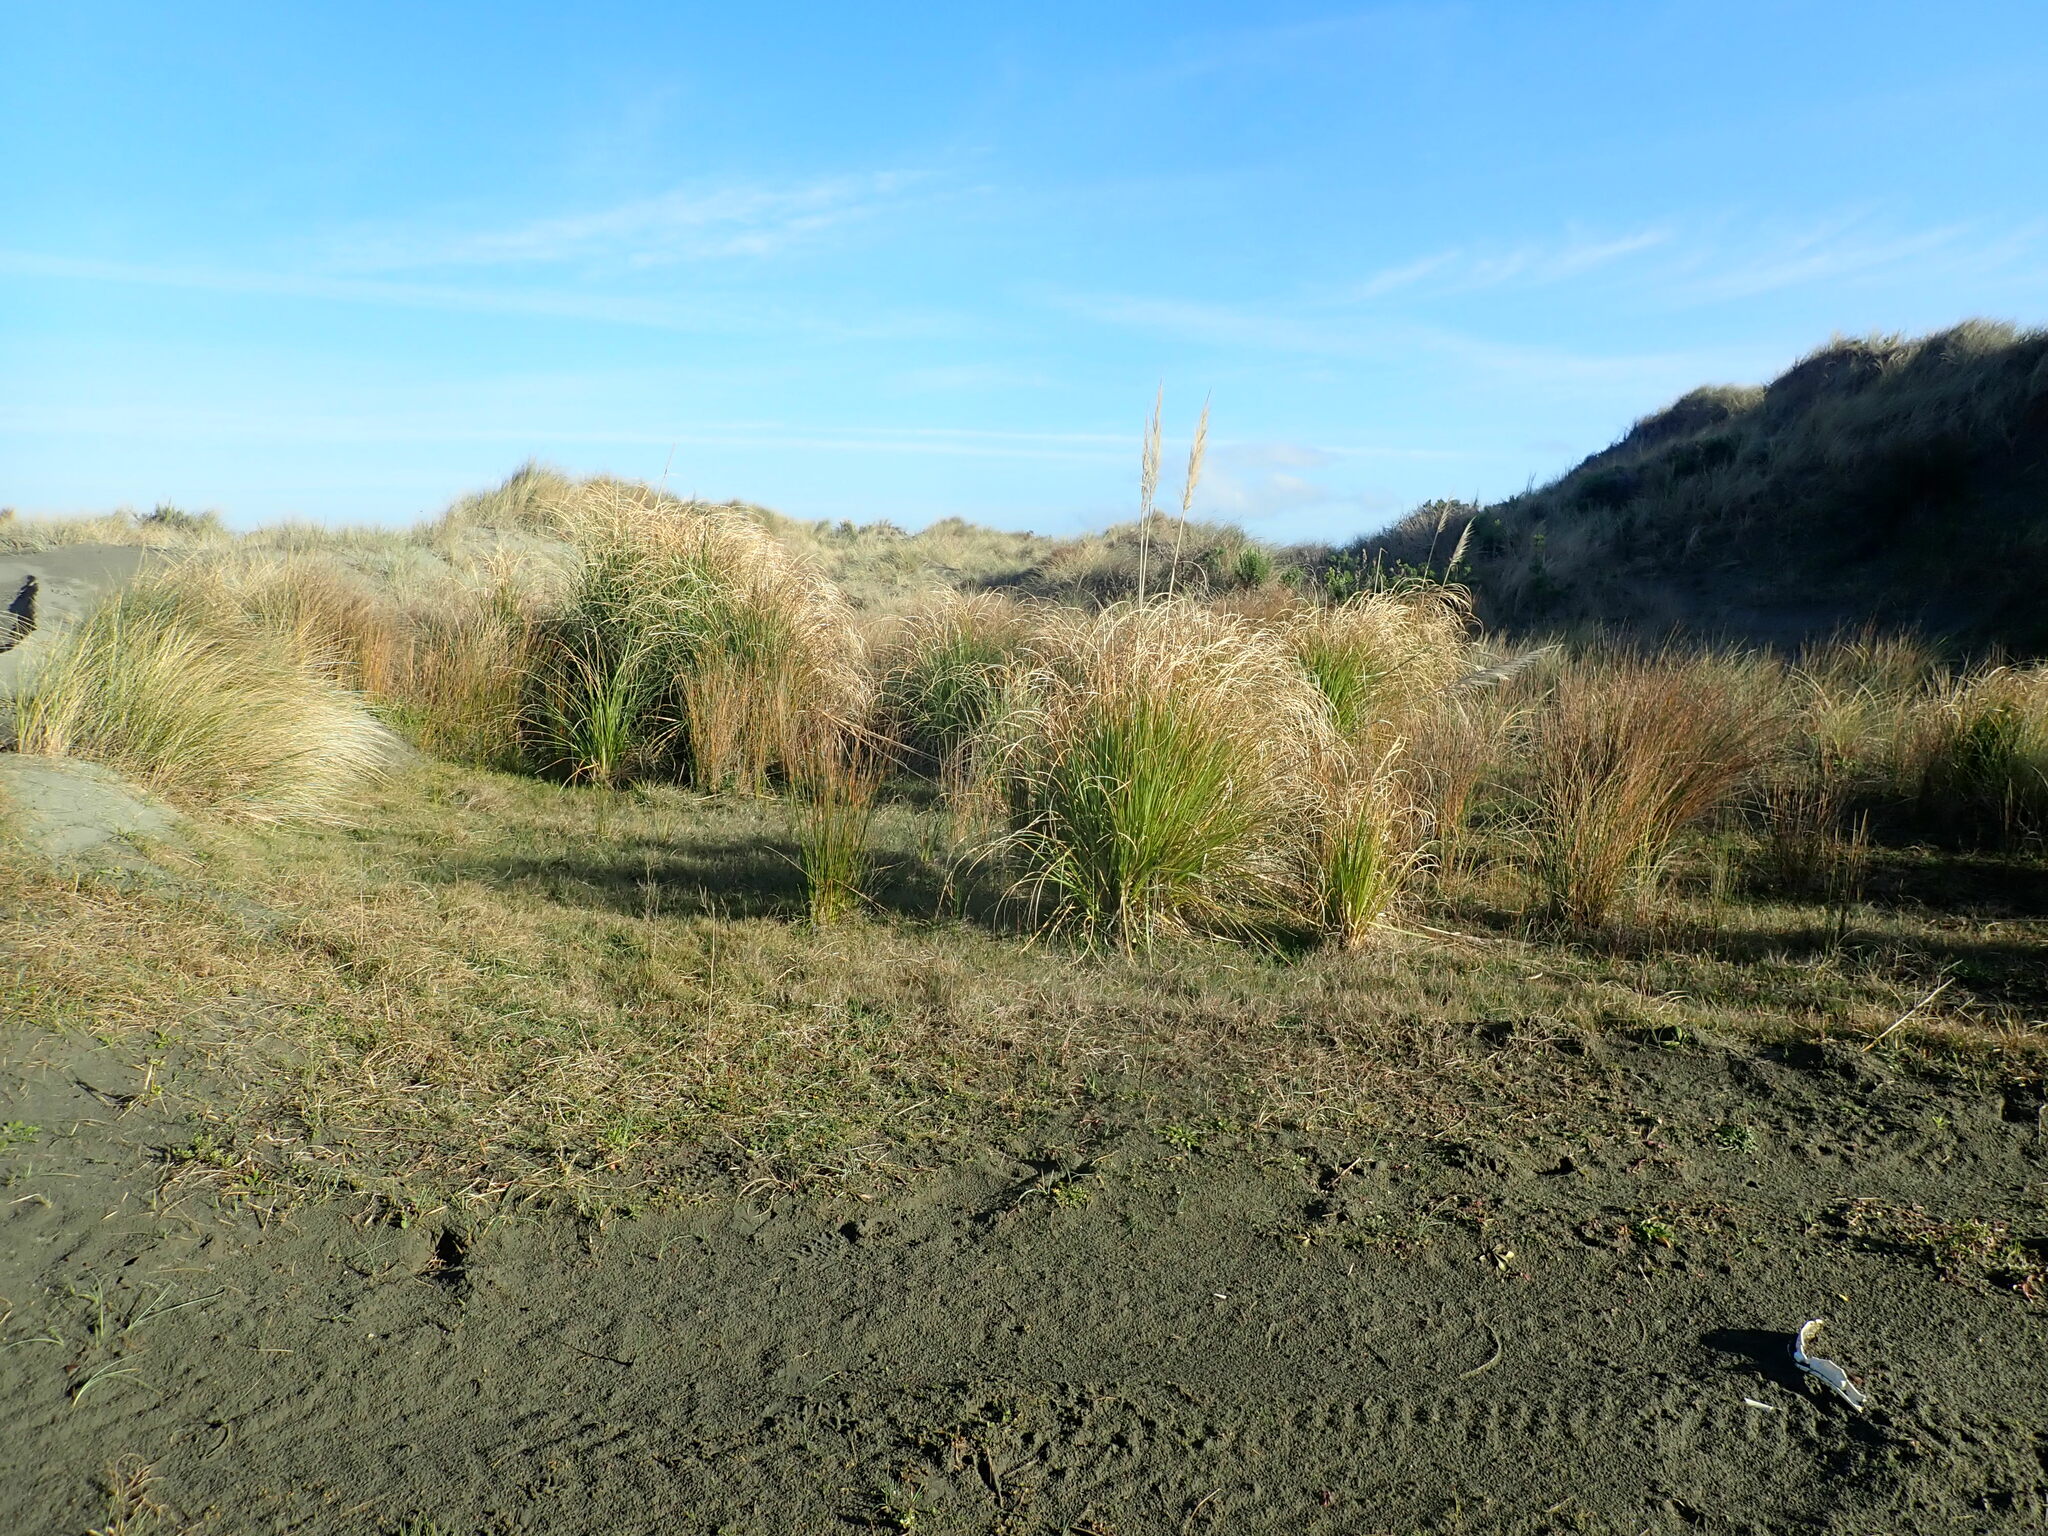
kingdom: Plantae
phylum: Tracheophyta
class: Liliopsida
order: Poales
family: Poaceae
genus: Cortaderia
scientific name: Cortaderia selloana
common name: Uruguayan pampas grass
